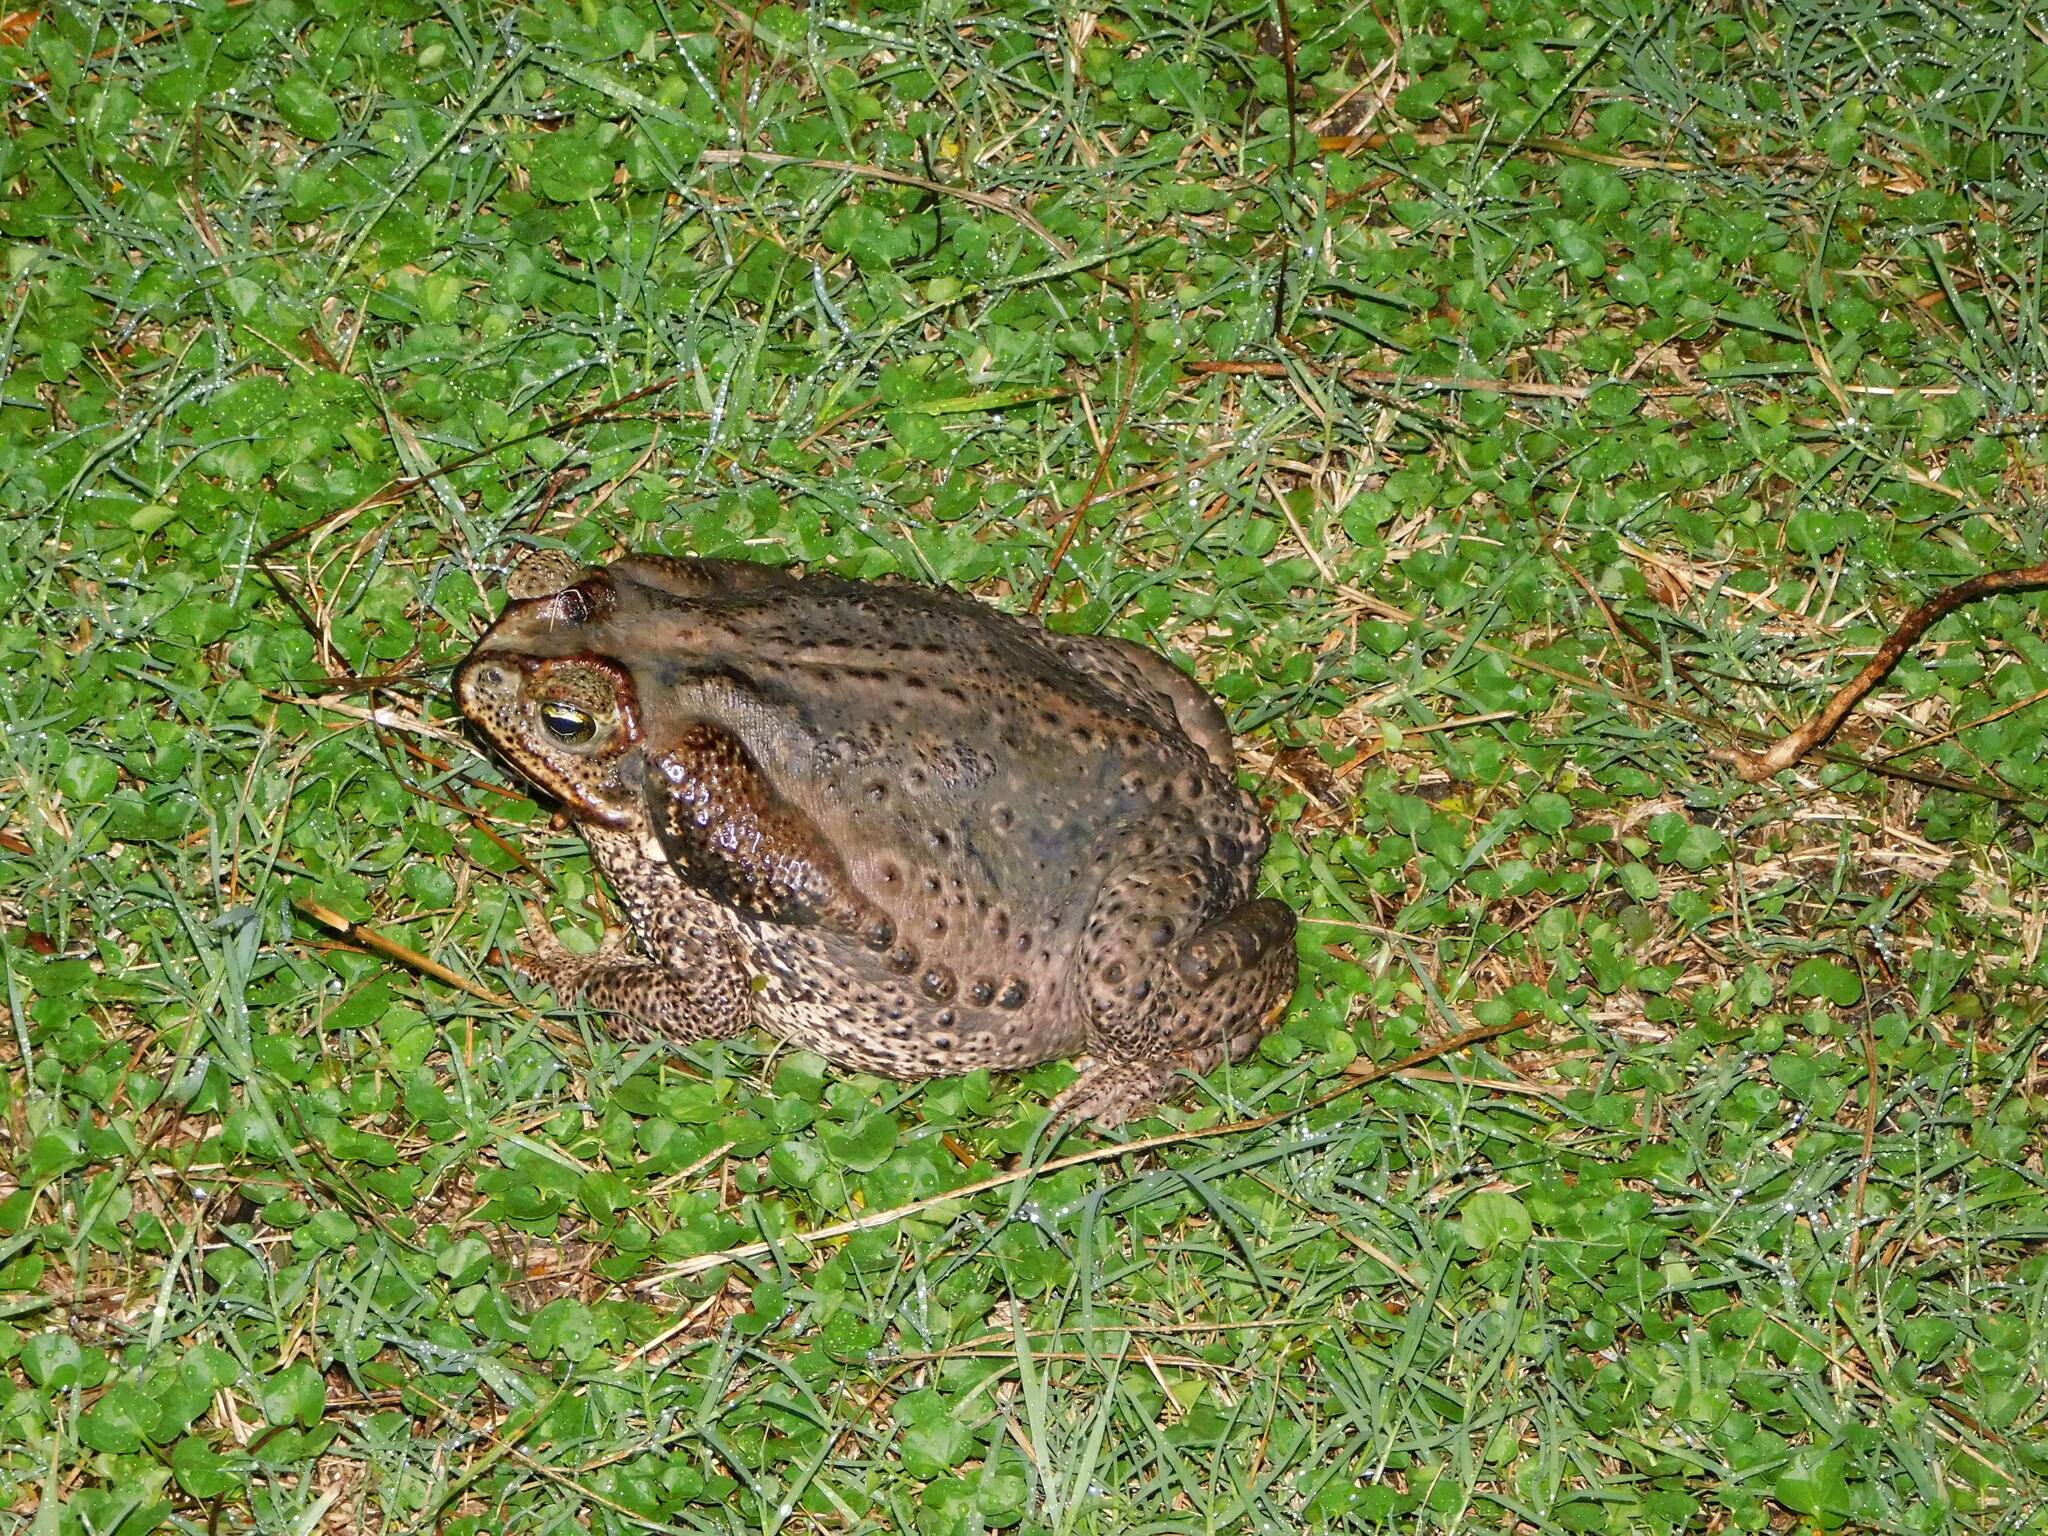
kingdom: Animalia
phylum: Chordata
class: Amphibia
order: Anura
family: Bufonidae
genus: Rhinella
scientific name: Rhinella diptycha
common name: Cope's toad
